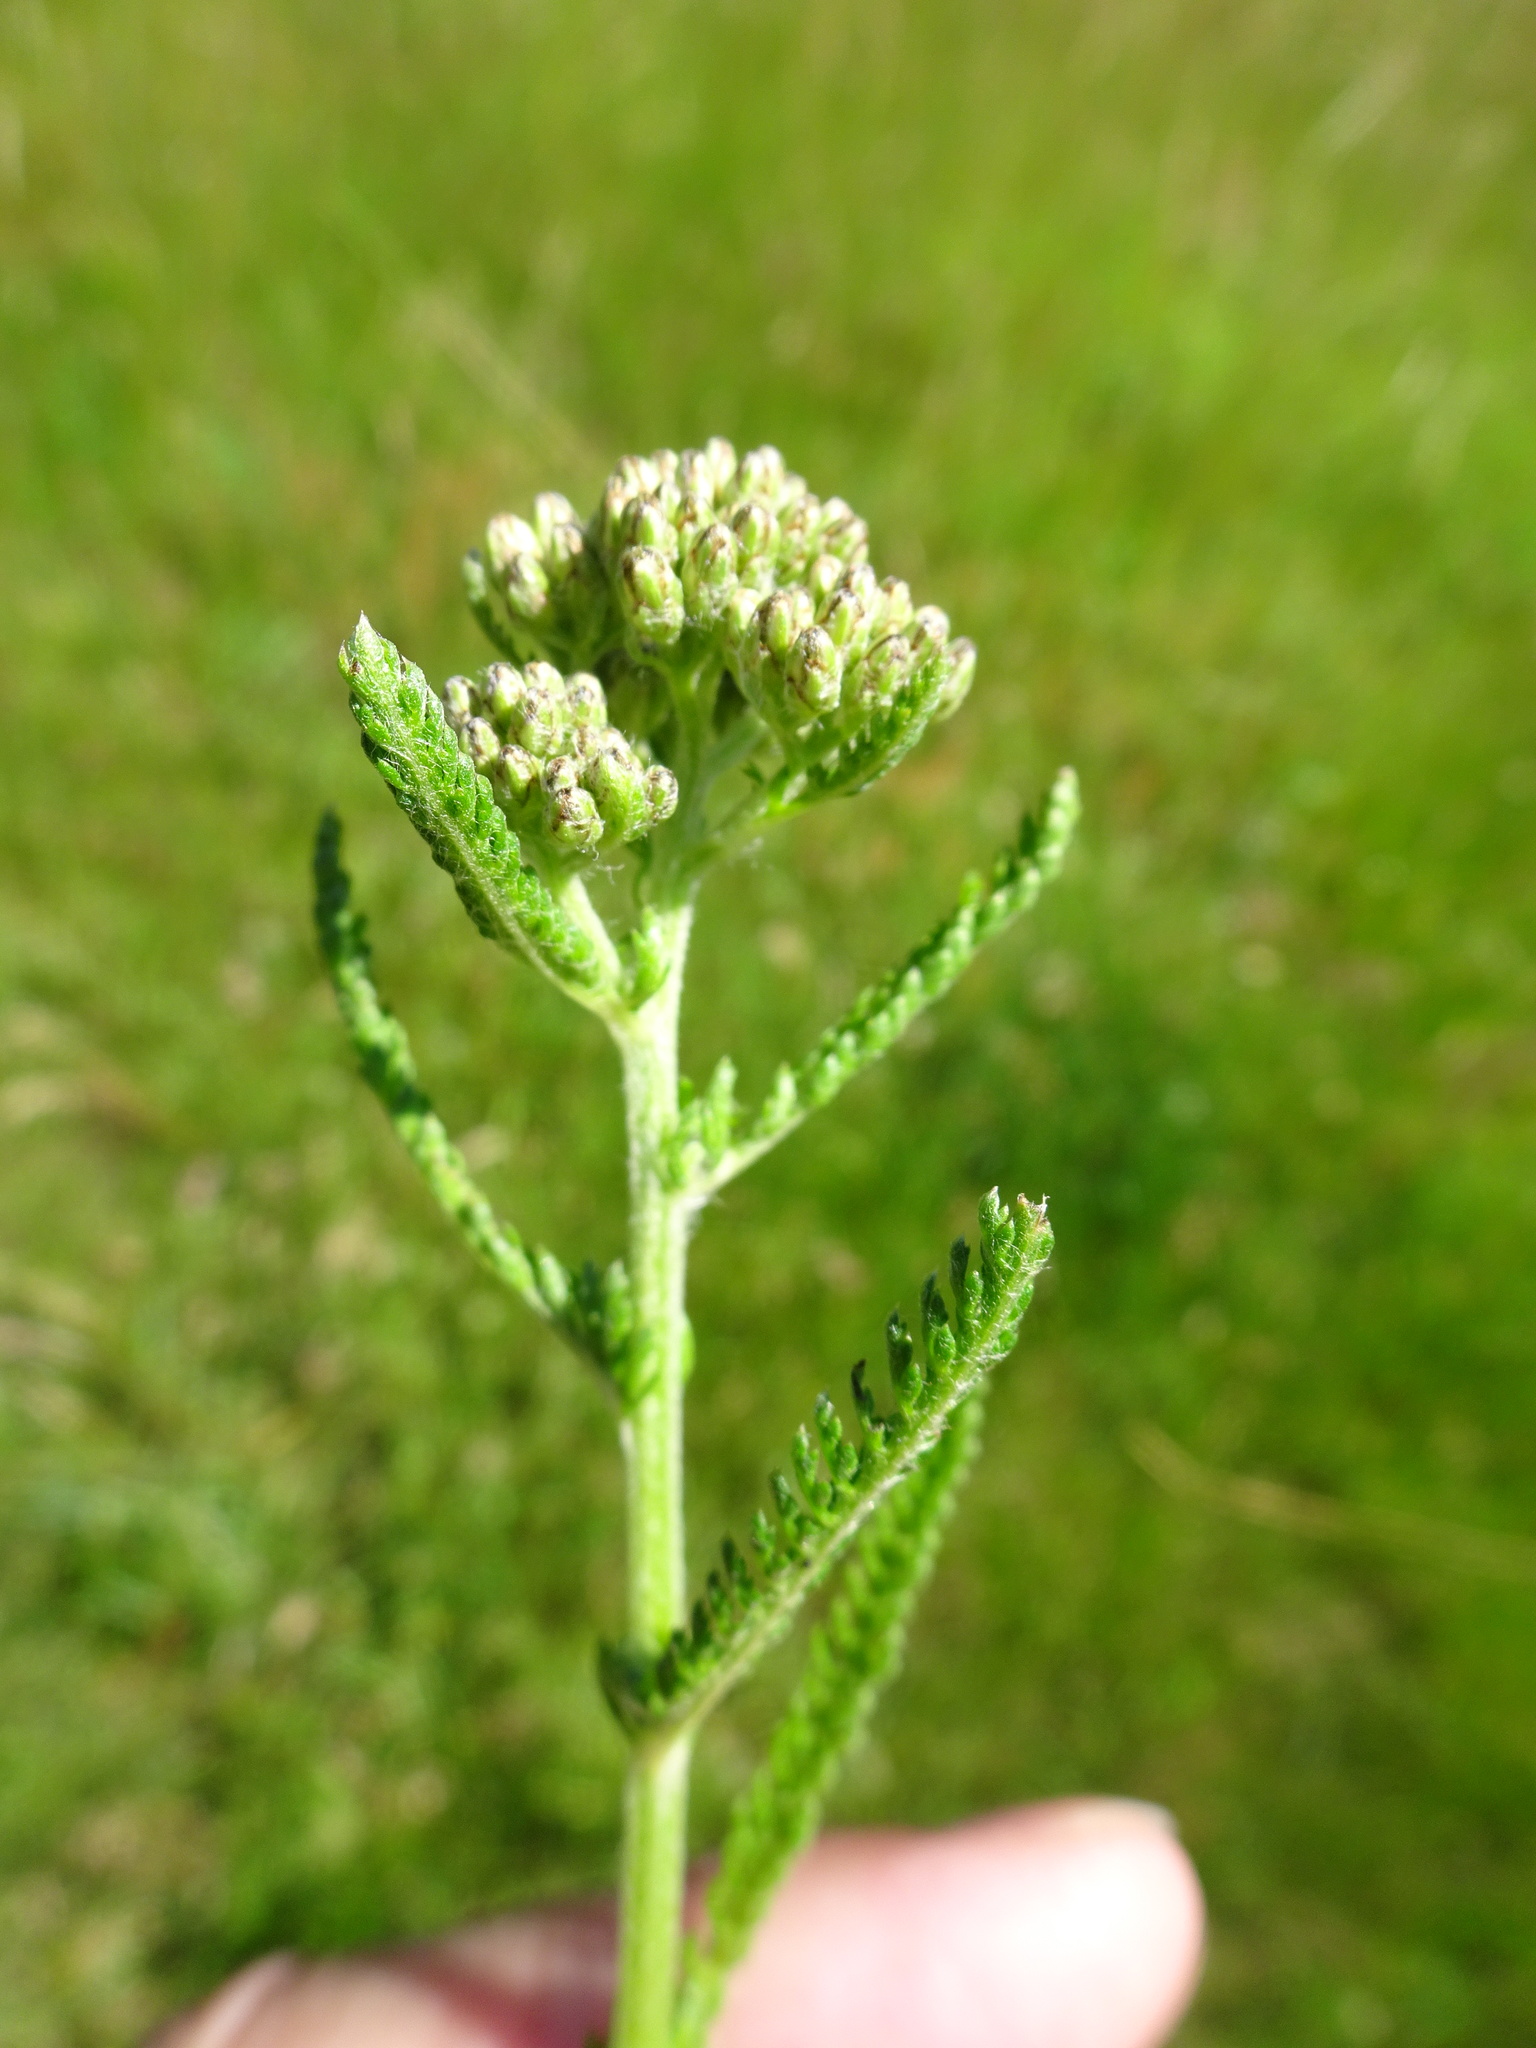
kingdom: Plantae
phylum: Tracheophyta
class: Magnoliopsida
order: Asterales
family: Asteraceae
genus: Achillea
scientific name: Achillea millefolium
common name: Yarrow
